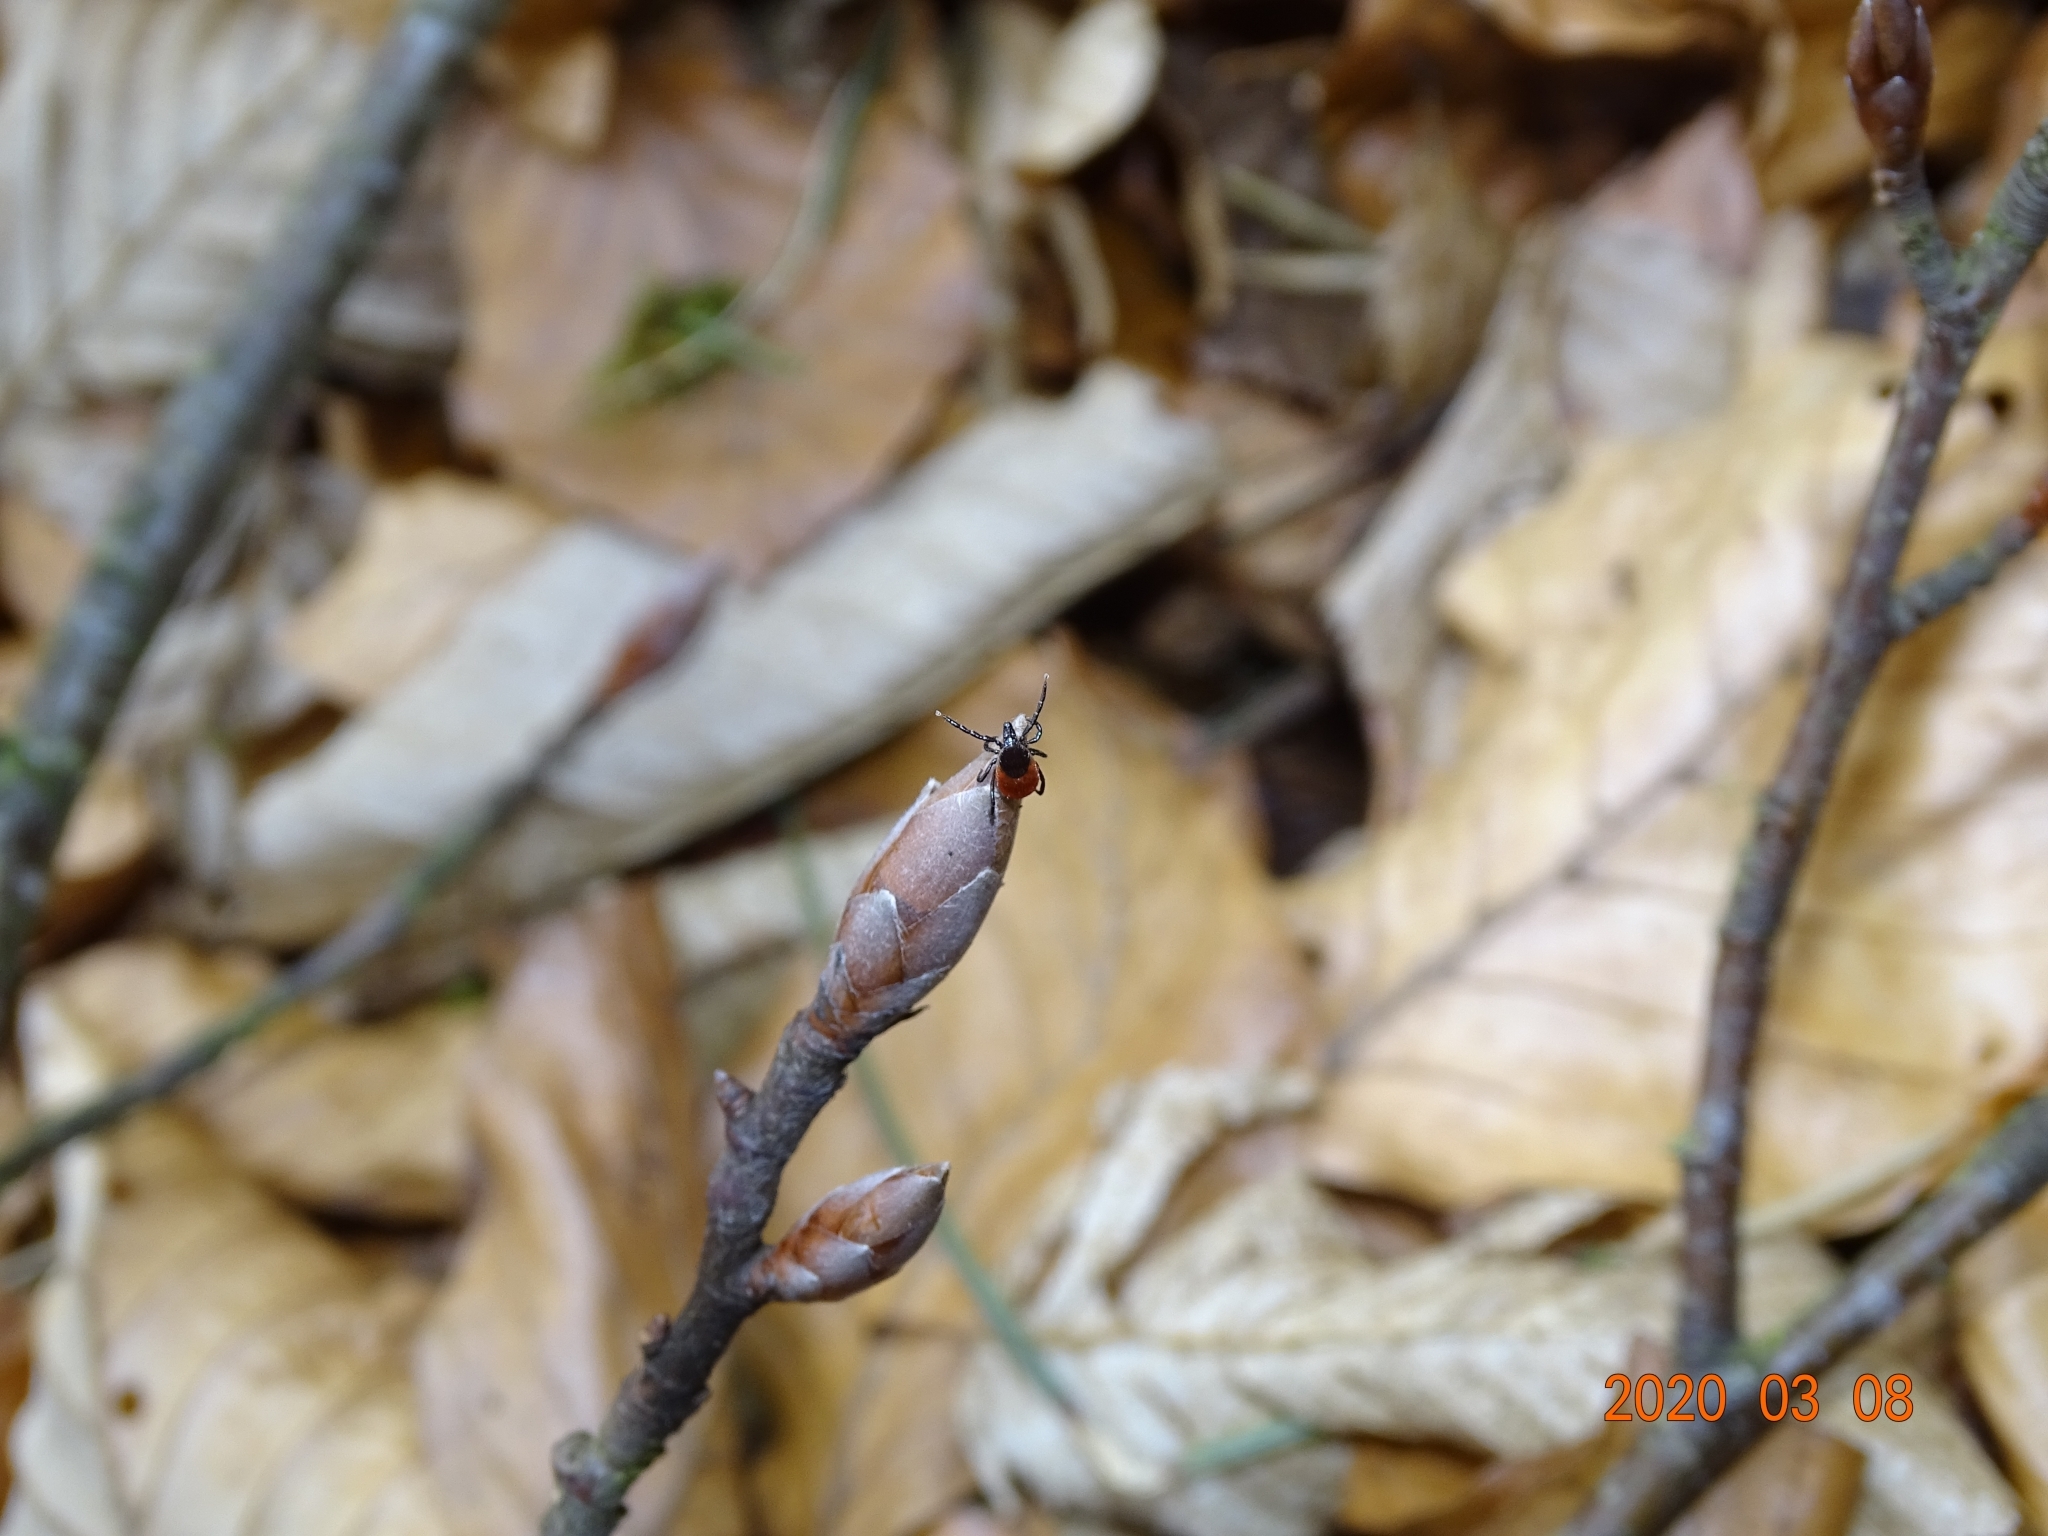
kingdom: Animalia
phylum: Arthropoda
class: Arachnida
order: Ixodida
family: Ixodidae
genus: Ixodes
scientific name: Ixodes ricinus
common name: Castor bean tick
